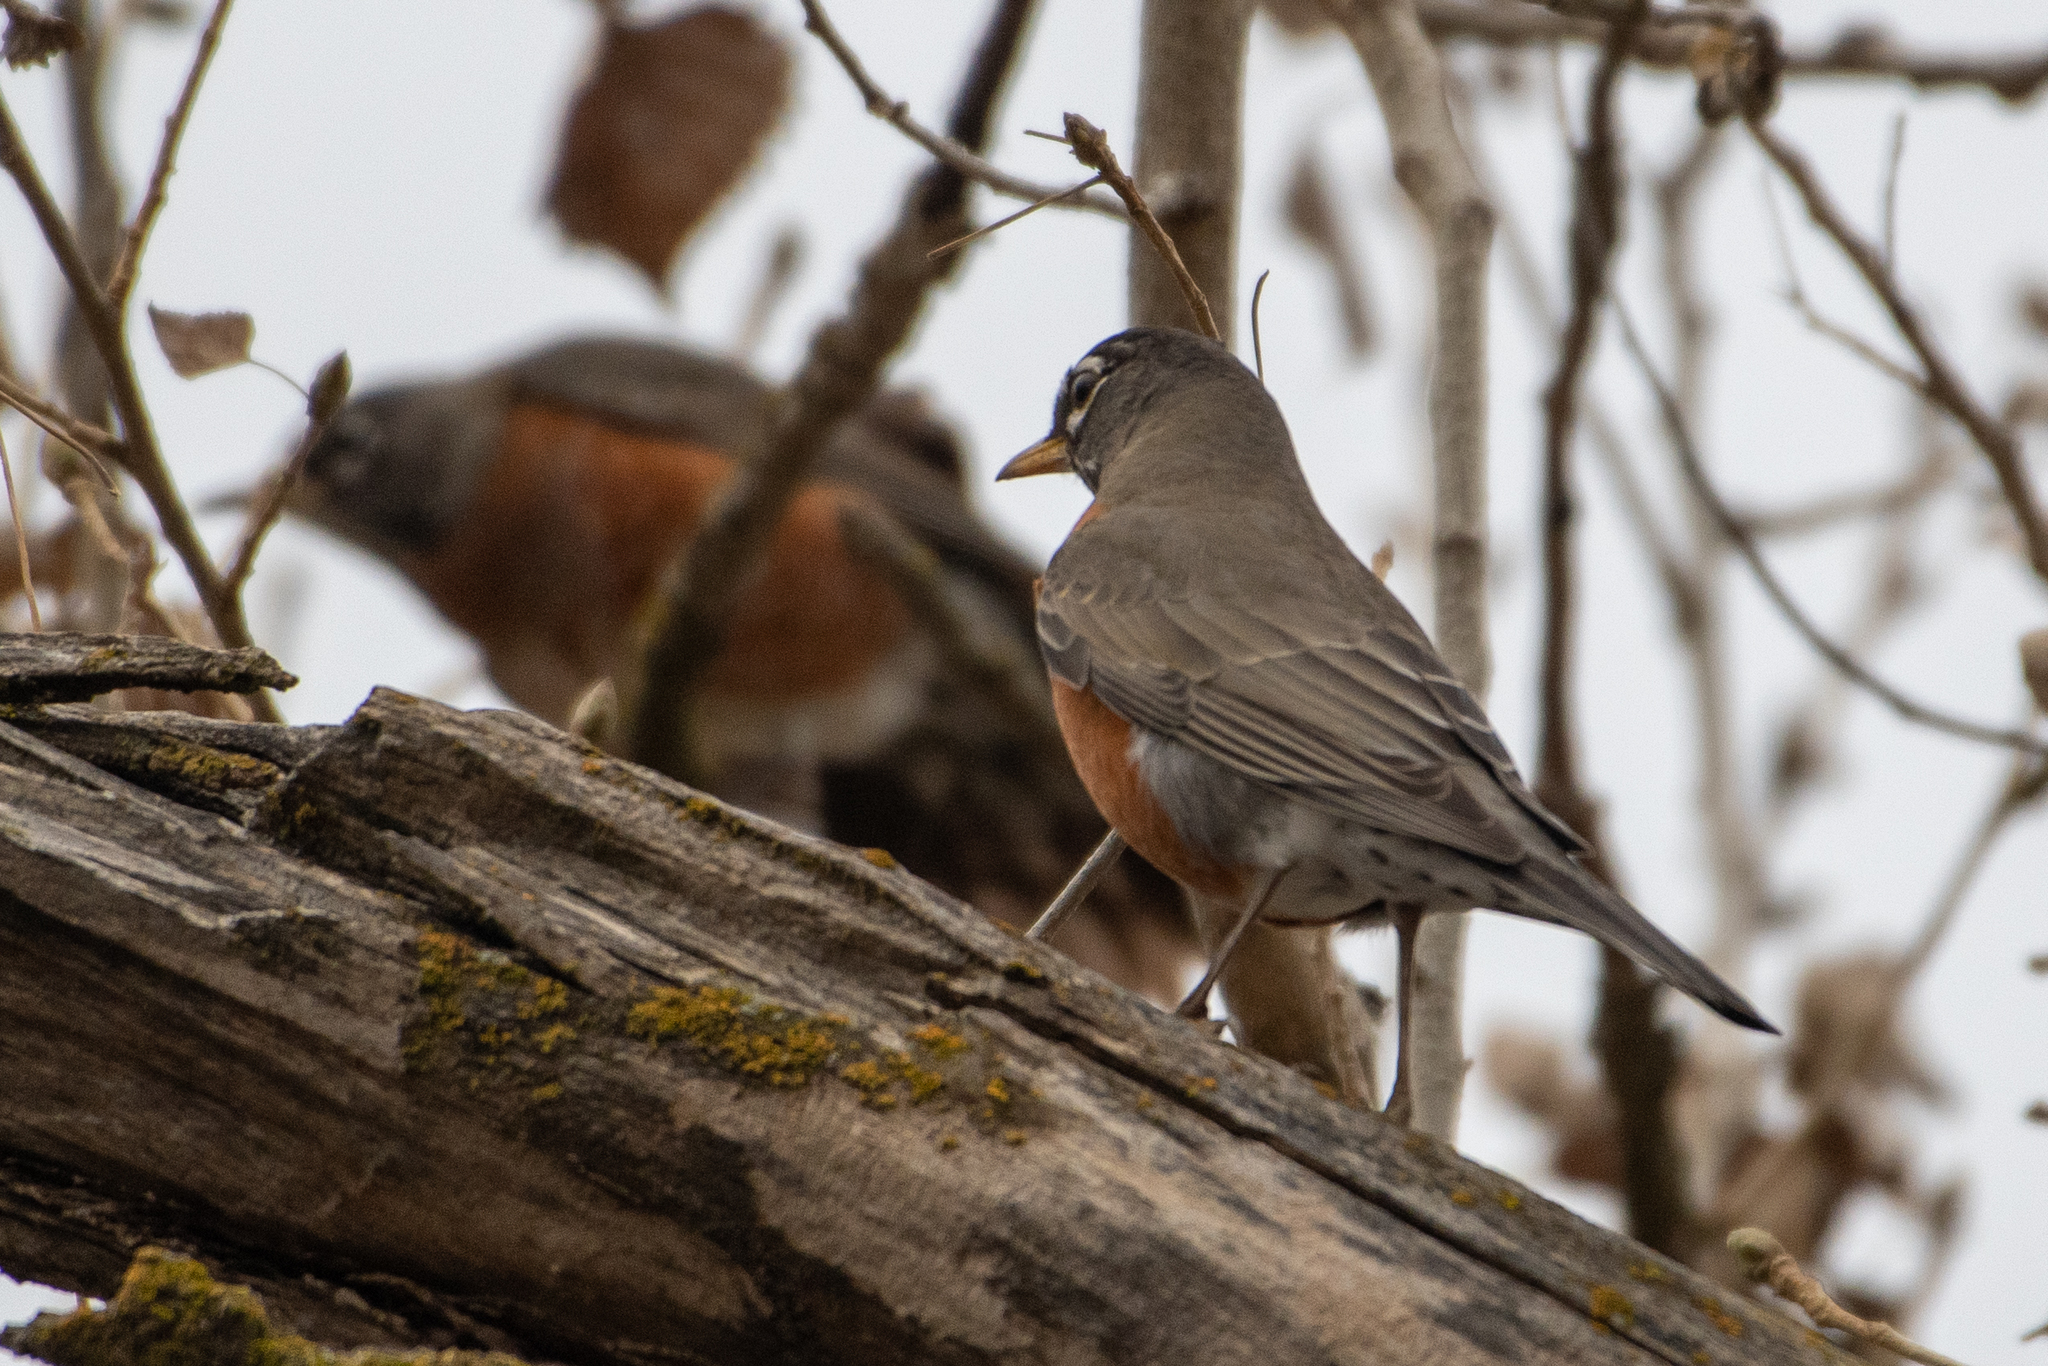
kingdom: Animalia
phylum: Chordata
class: Aves
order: Passeriformes
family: Turdidae
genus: Turdus
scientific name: Turdus migratorius
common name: American robin
